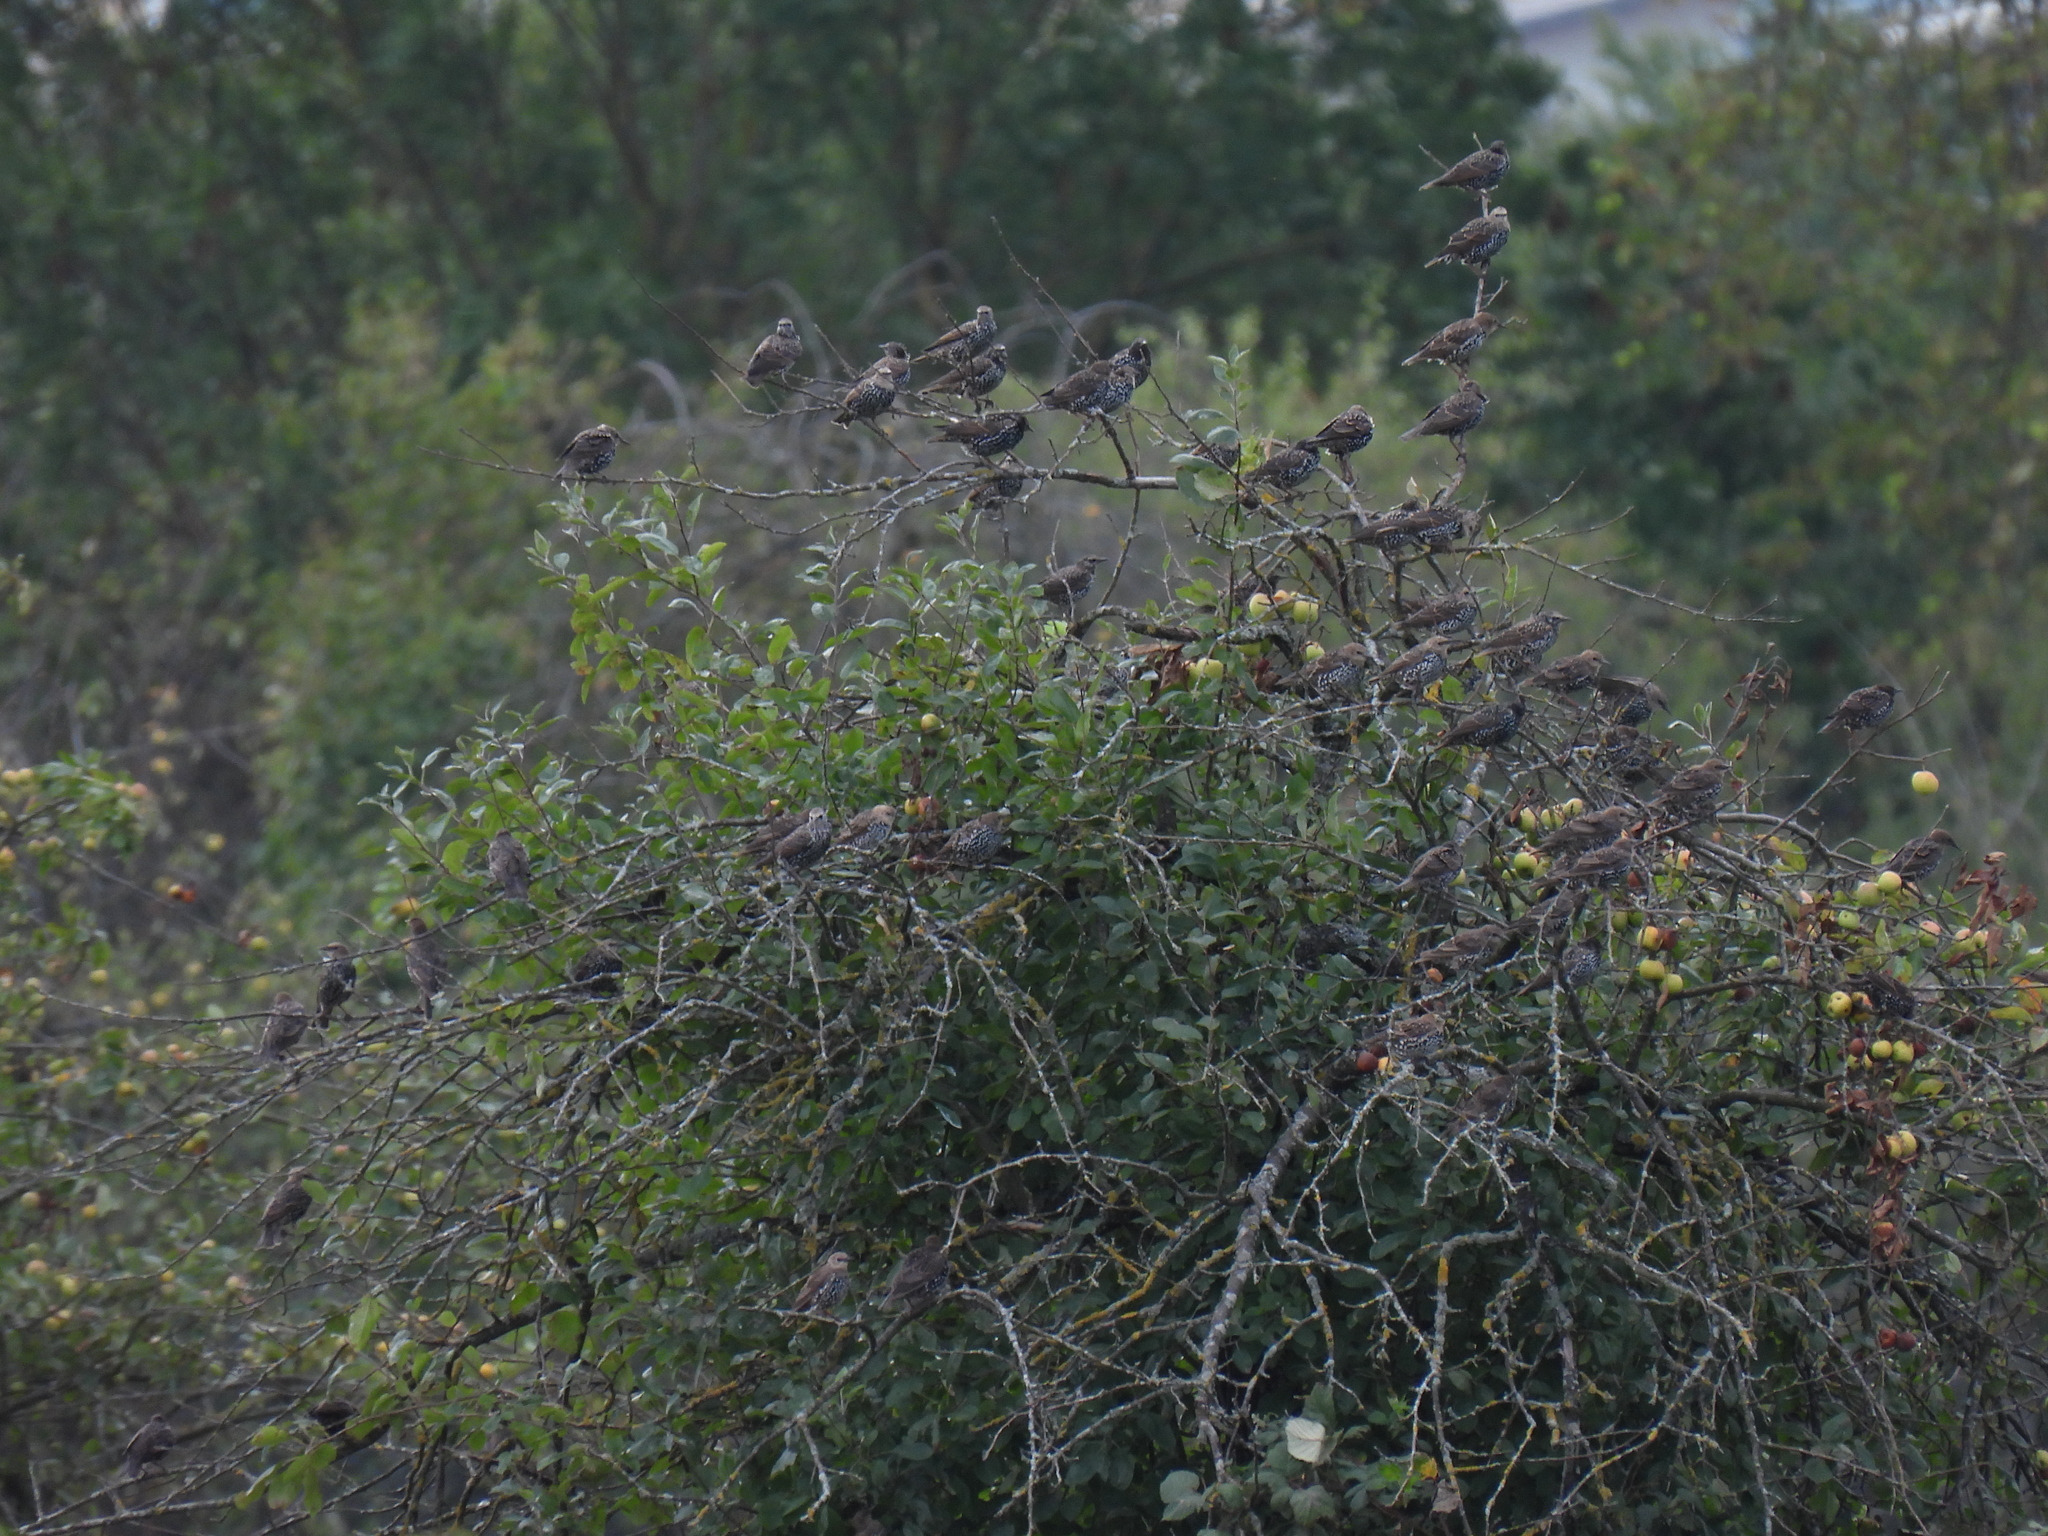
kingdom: Animalia
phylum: Chordata
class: Aves
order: Passeriformes
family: Sturnidae
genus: Sturnus
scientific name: Sturnus vulgaris
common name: Common starling
